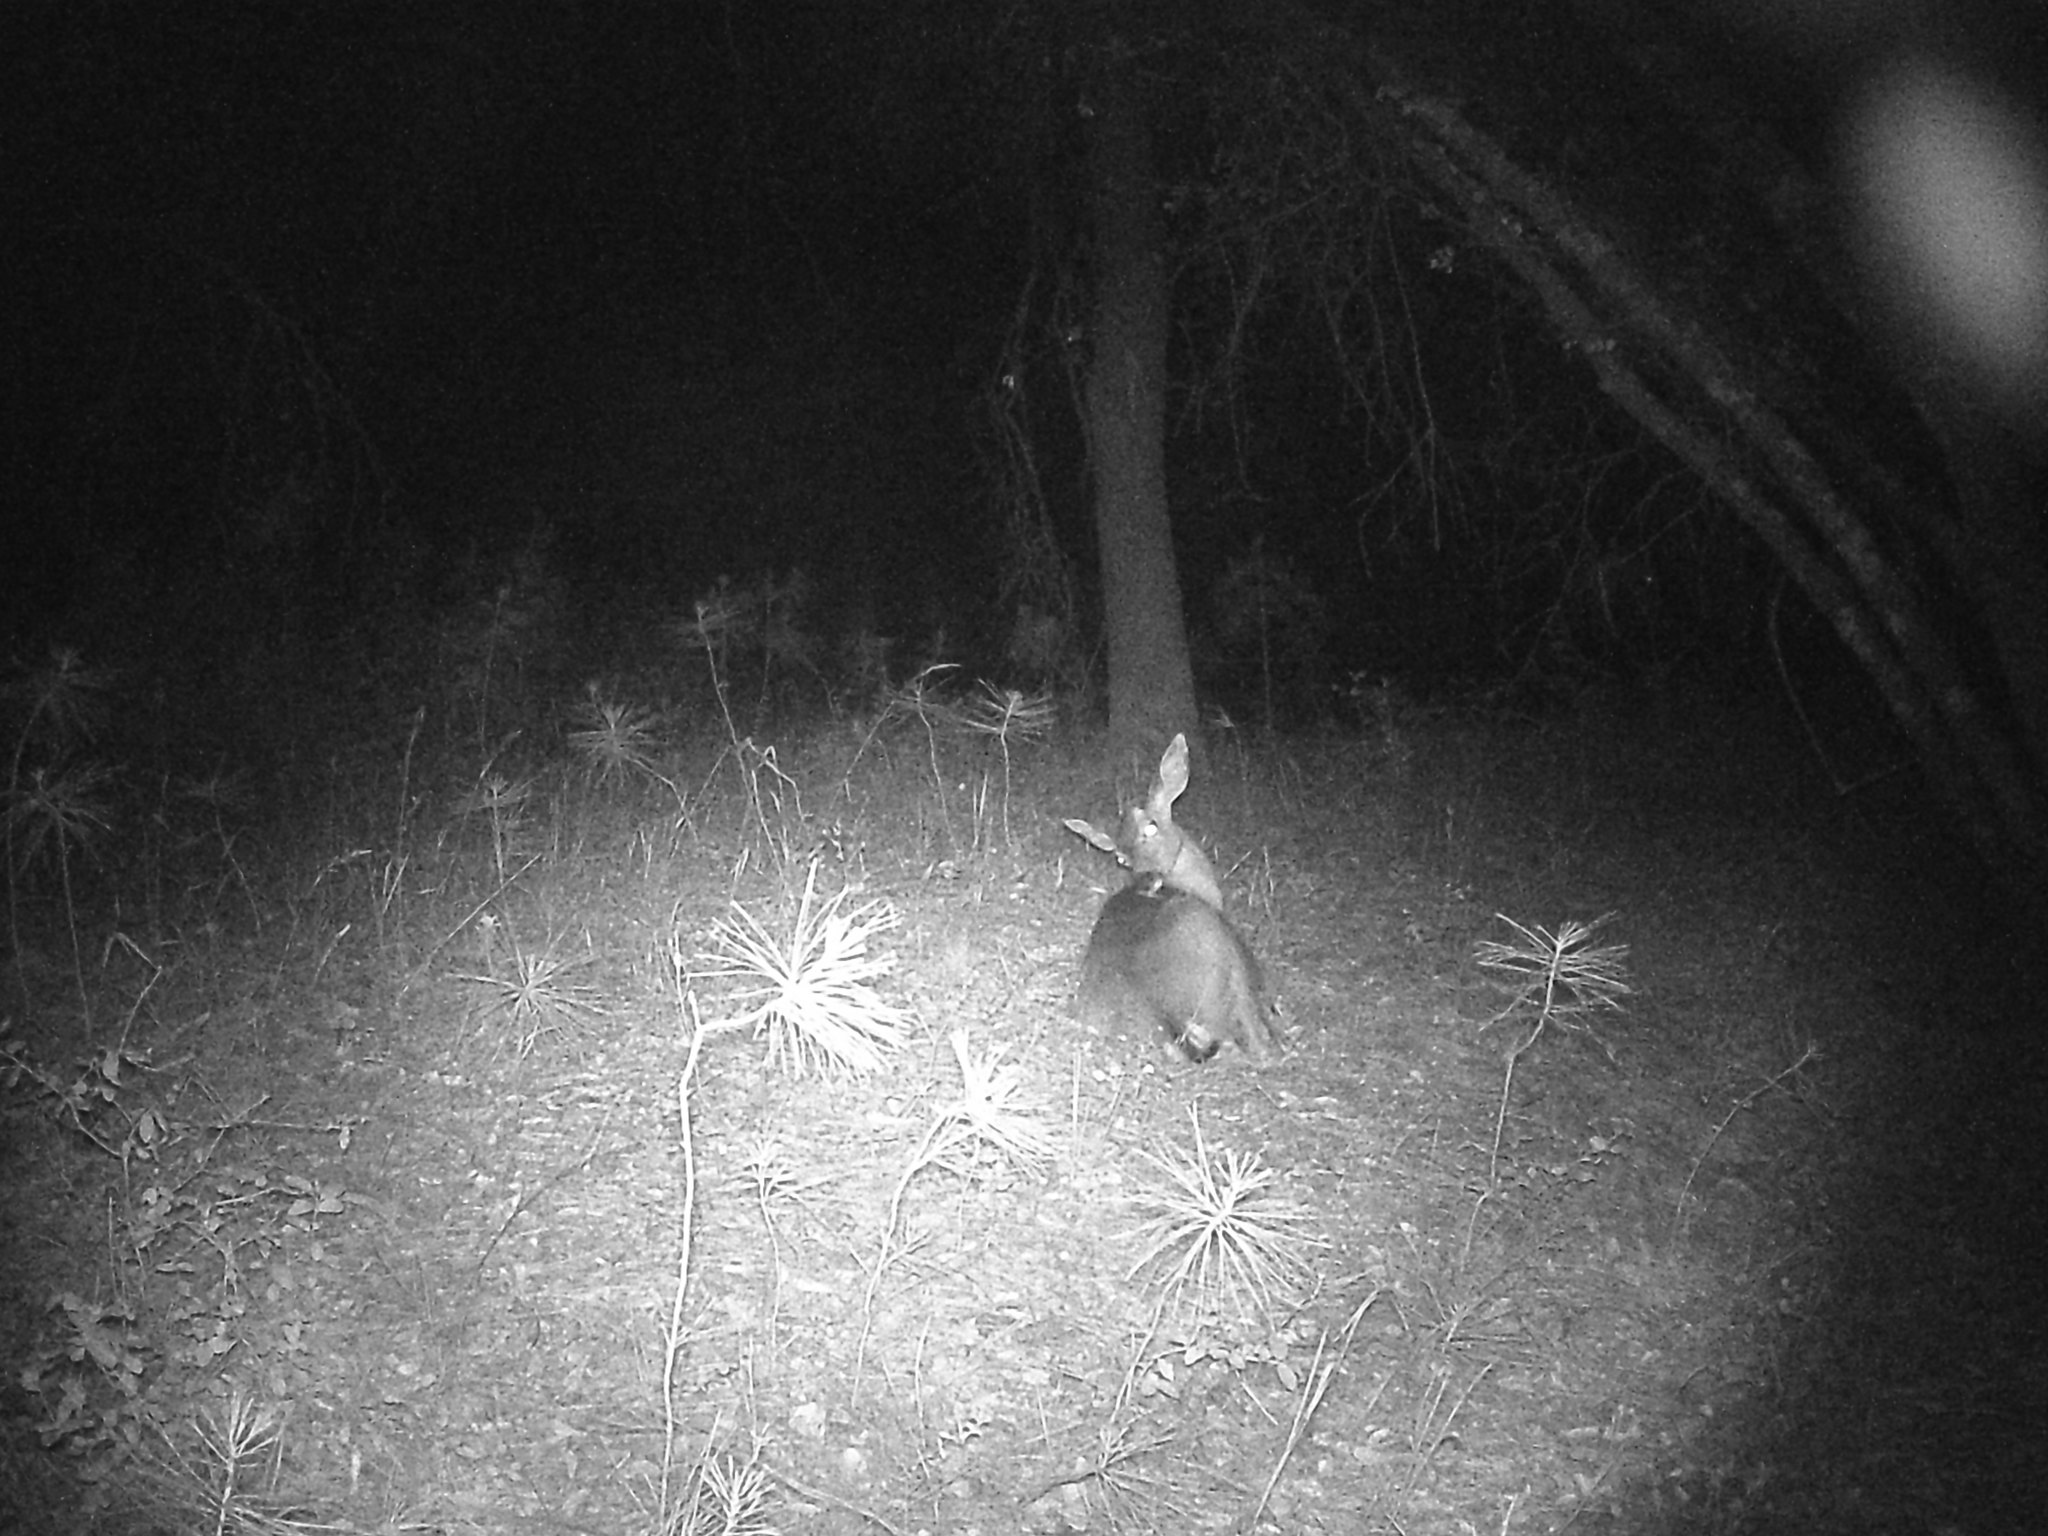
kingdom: Animalia
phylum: Chordata
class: Mammalia
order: Artiodactyla
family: Cervidae
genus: Odocoileus
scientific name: Odocoileus hemionus
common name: Mule deer
